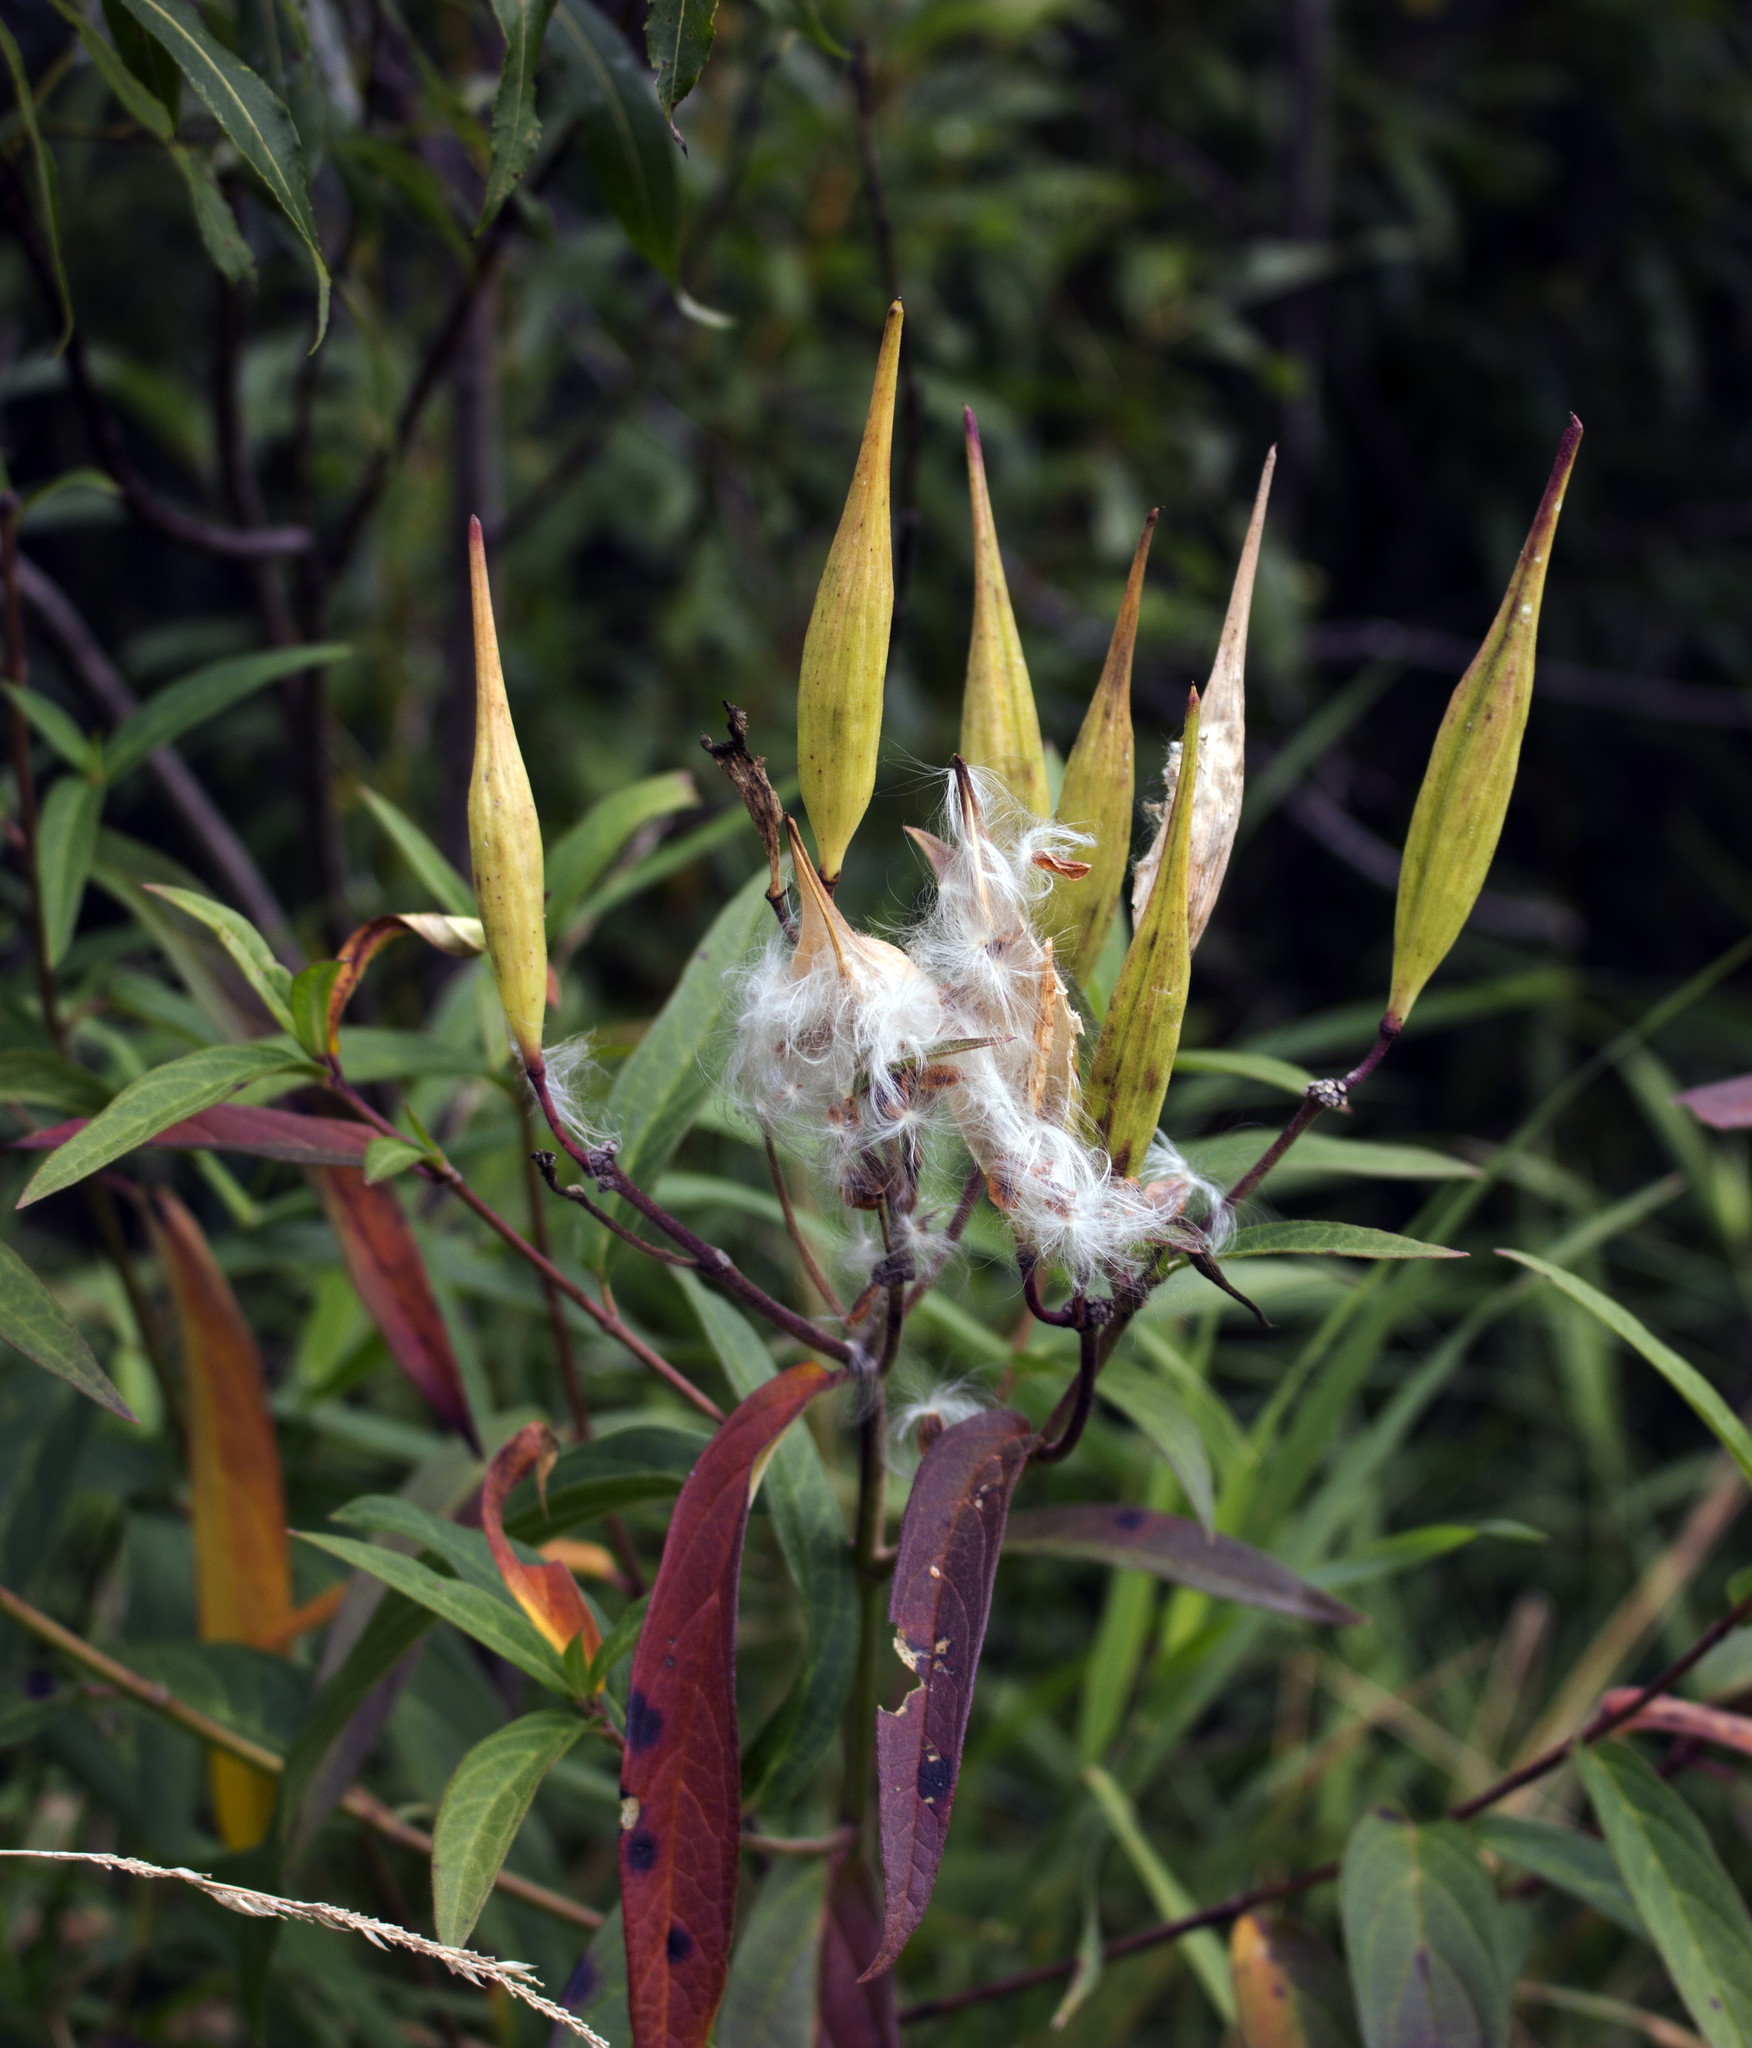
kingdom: Plantae
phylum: Tracheophyta
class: Magnoliopsida
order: Gentianales
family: Apocynaceae
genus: Asclepias
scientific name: Asclepias incarnata
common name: Swamp milkweed
